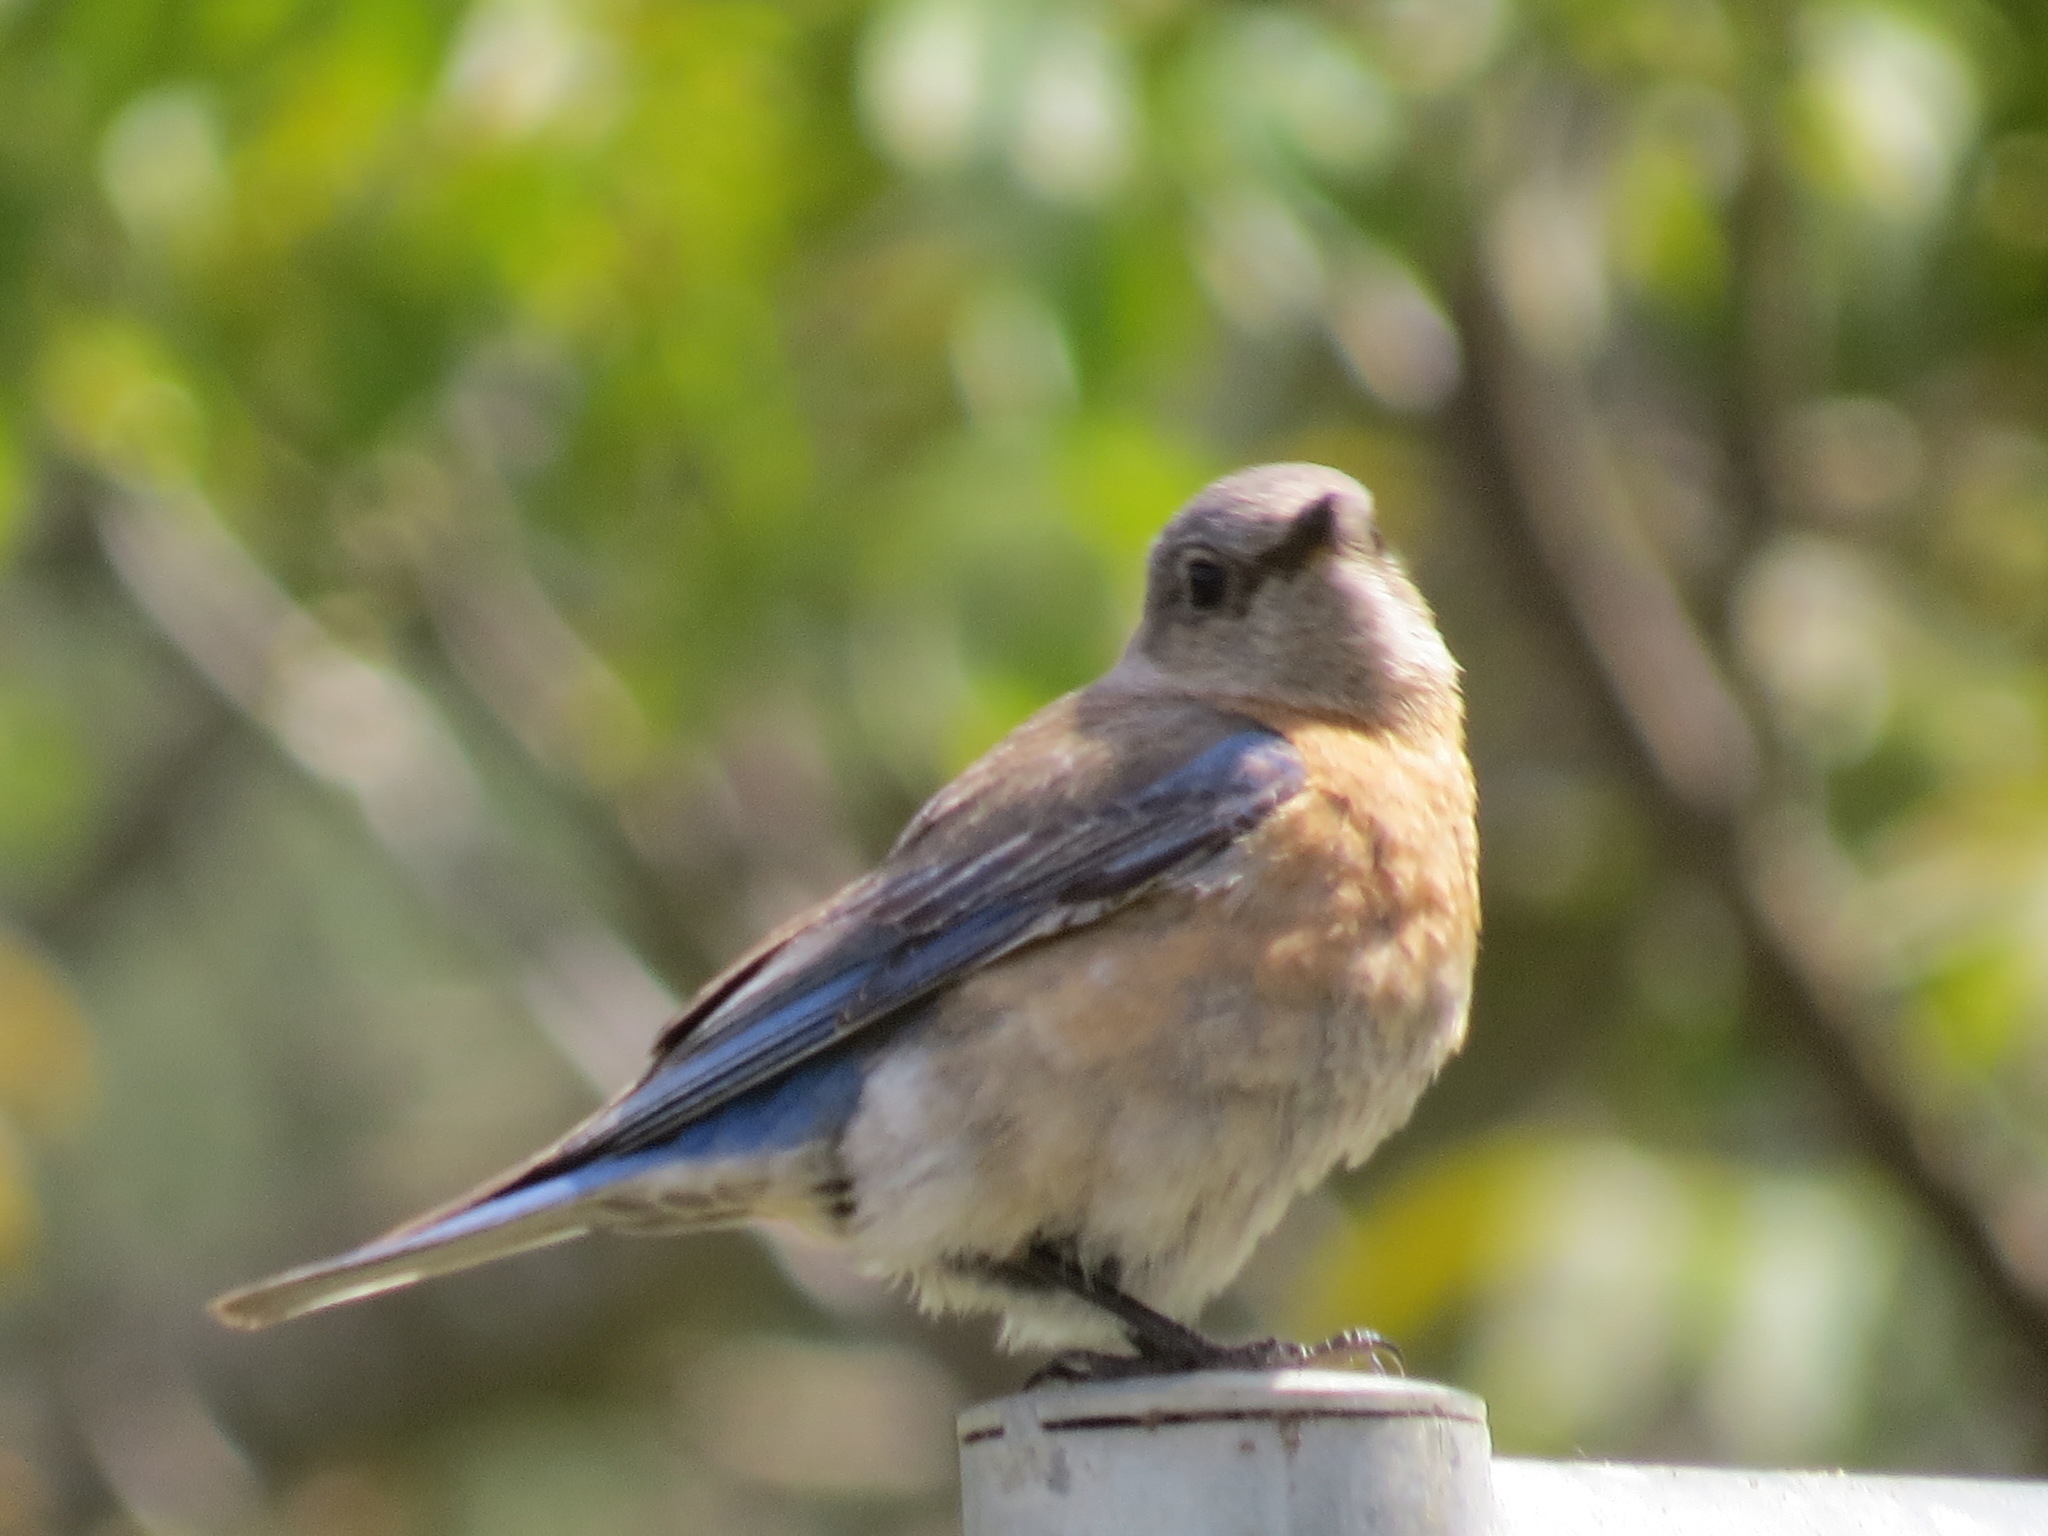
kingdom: Animalia
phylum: Chordata
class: Aves
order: Passeriformes
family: Turdidae
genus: Sialia
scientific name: Sialia mexicana
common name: Western bluebird
